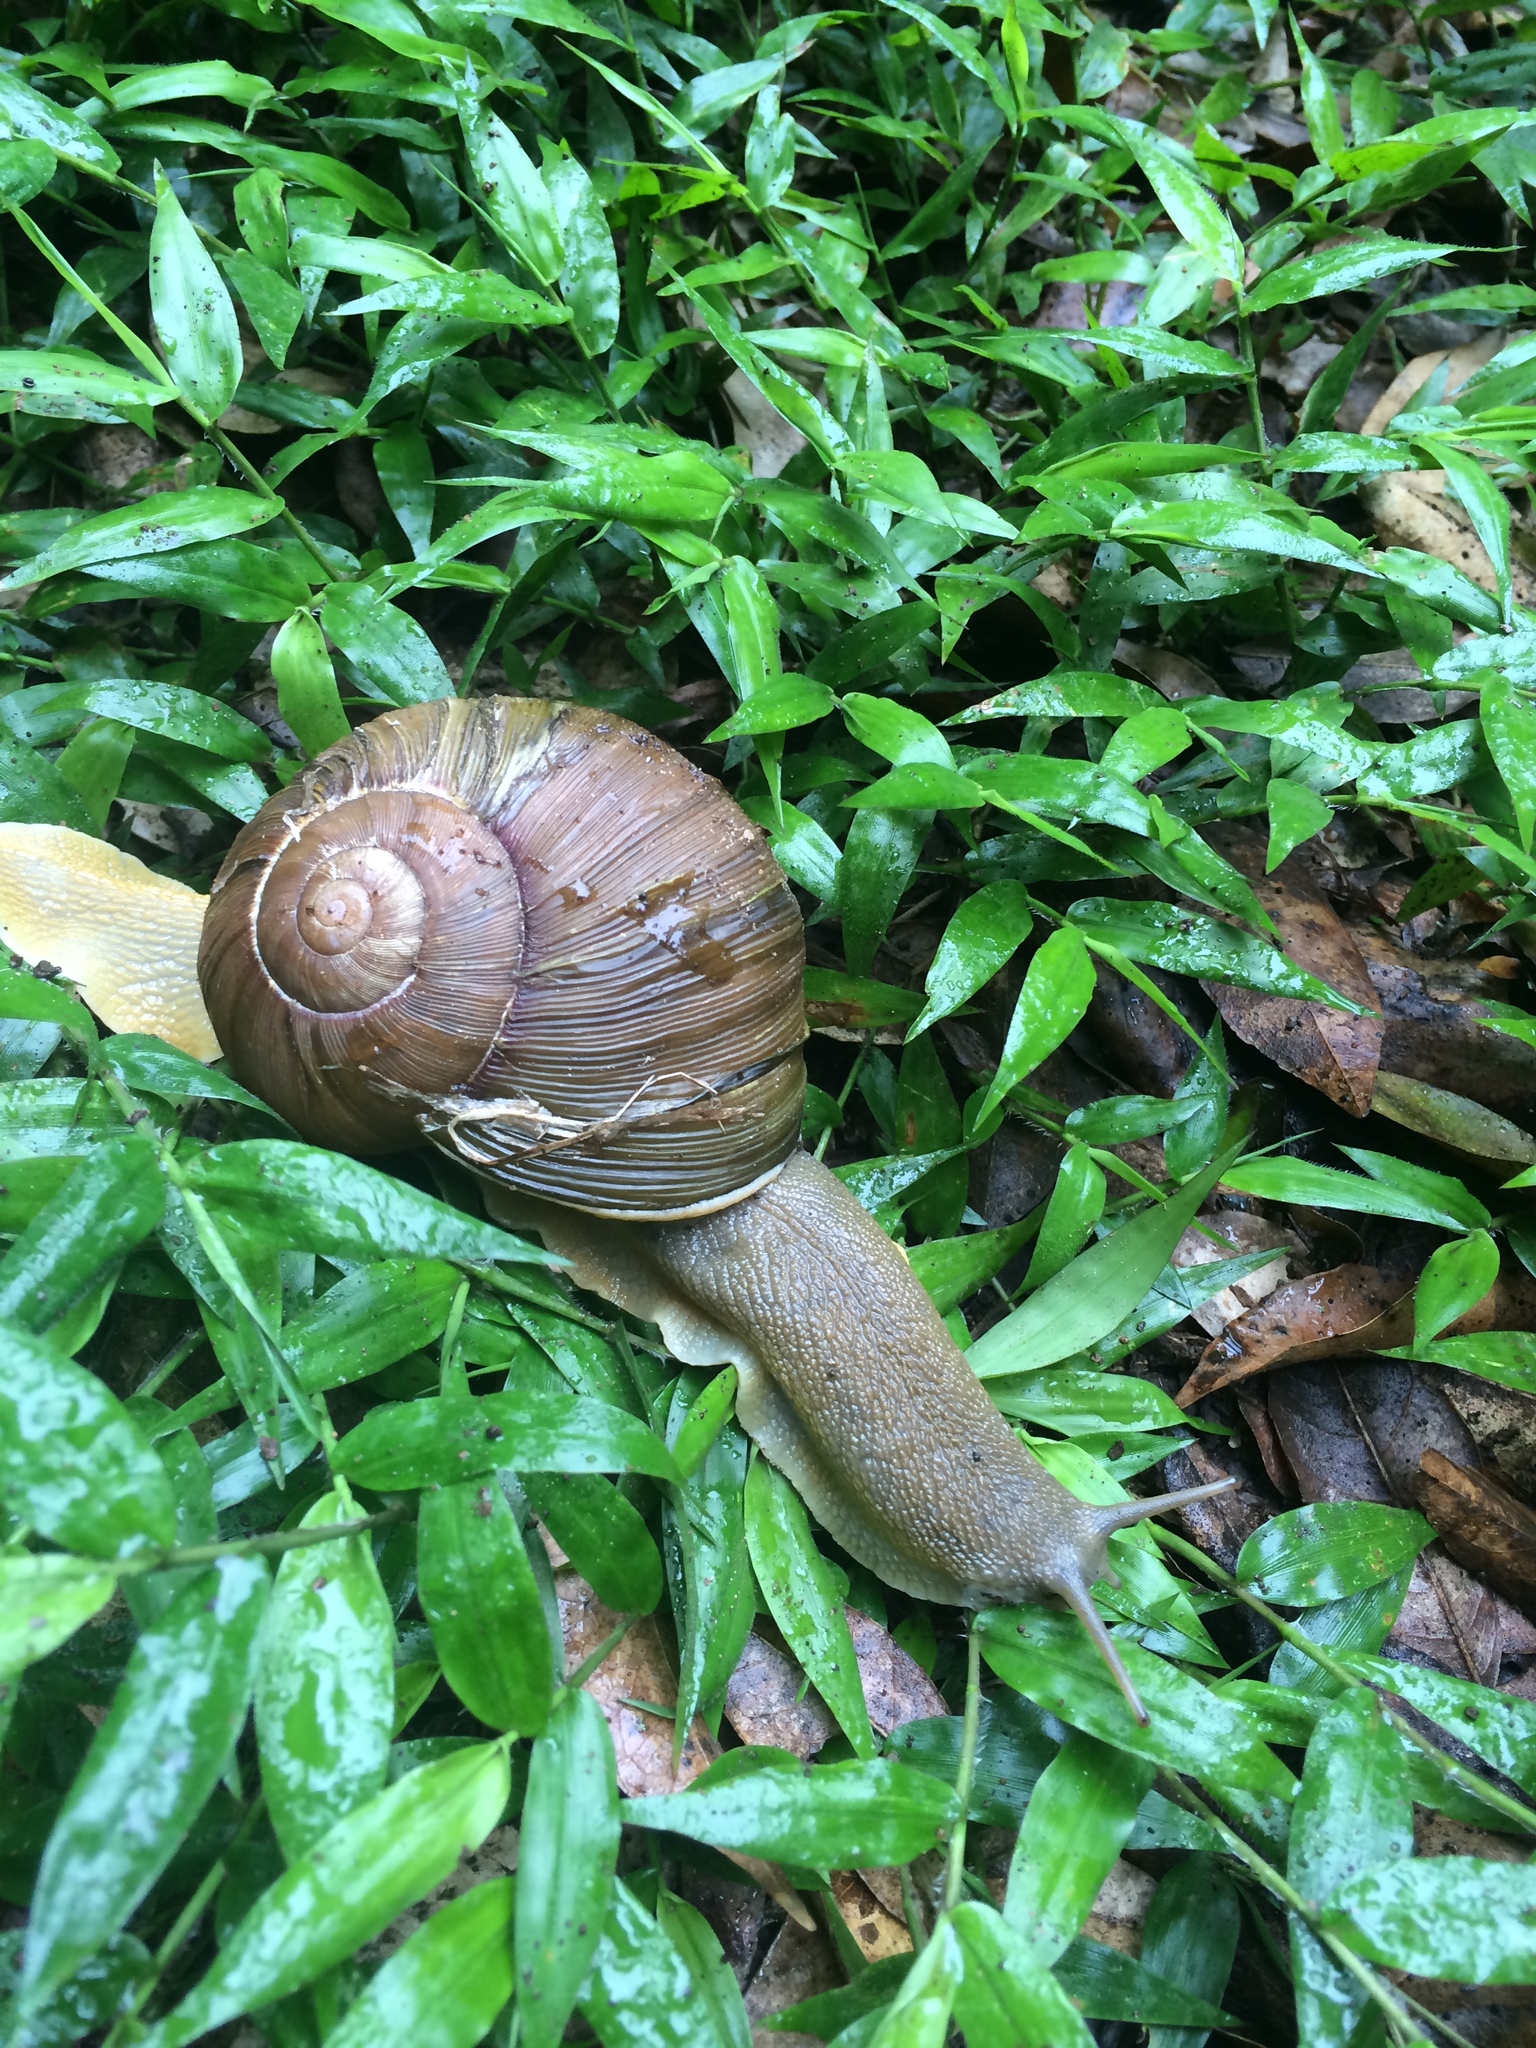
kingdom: Animalia
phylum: Mollusca
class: Gastropoda
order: Stylommatophora
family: Rhytididae
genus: Natalina
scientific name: Natalina cafra
